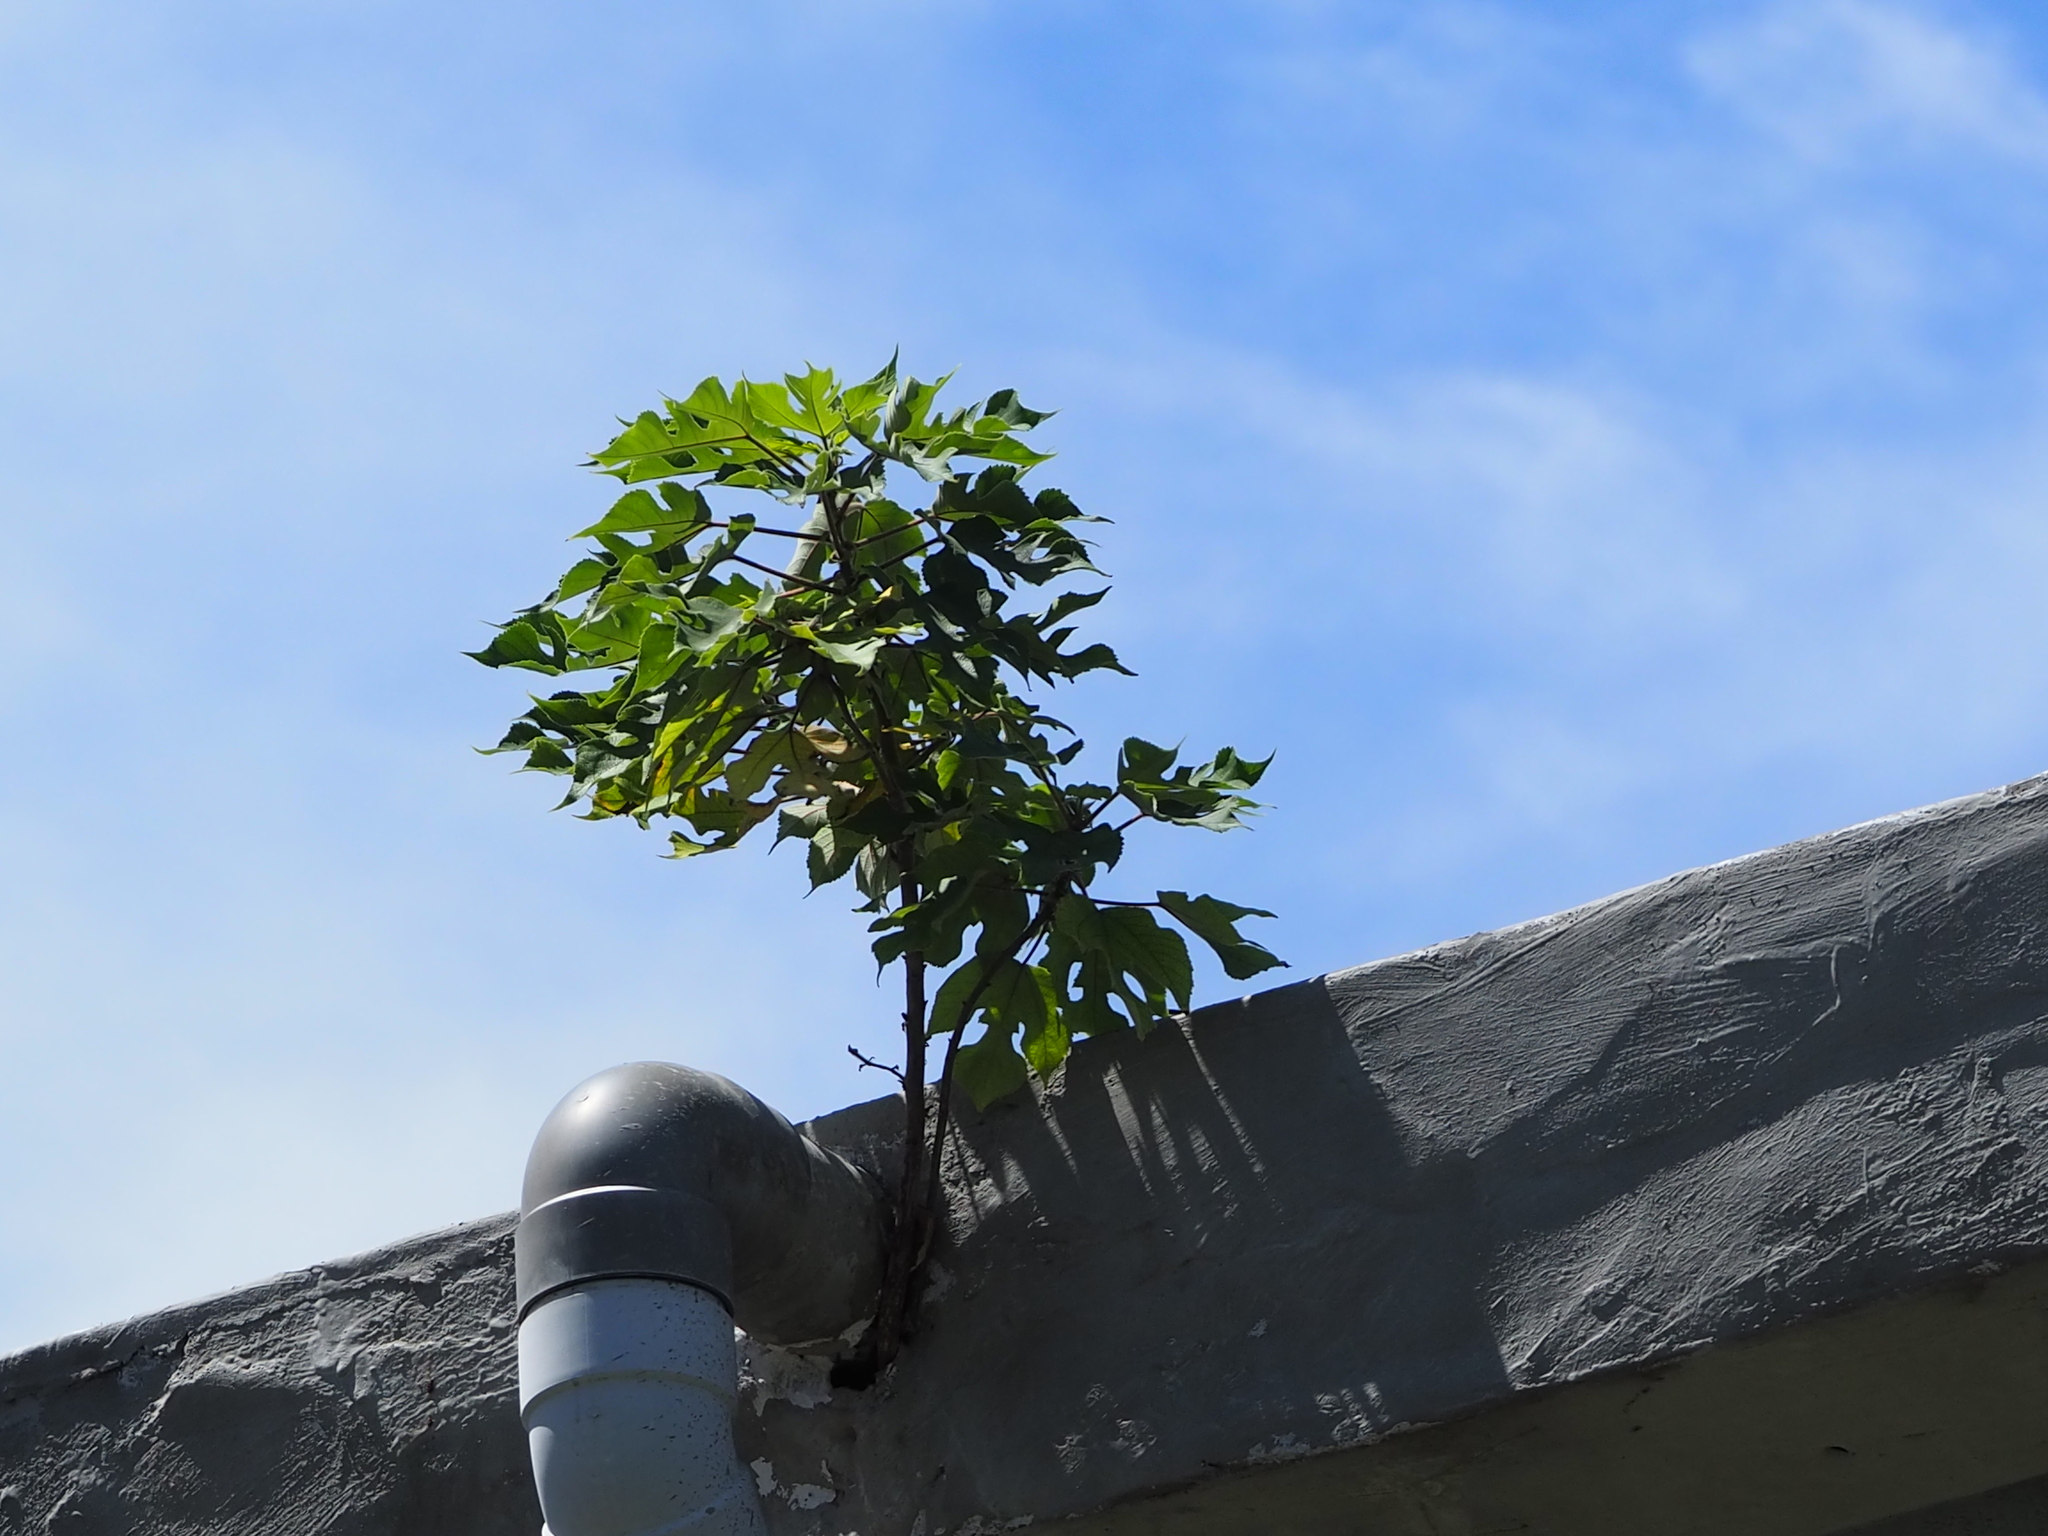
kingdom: Plantae
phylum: Tracheophyta
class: Magnoliopsida
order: Rosales
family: Moraceae
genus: Broussonetia
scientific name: Broussonetia papyrifera
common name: Paper mulberry
